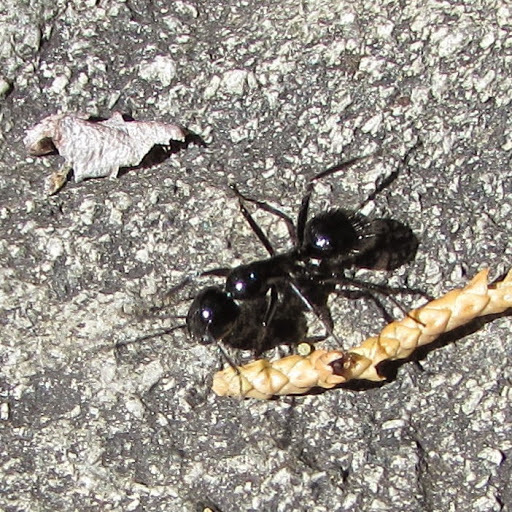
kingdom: Animalia
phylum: Arthropoda
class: Insecta
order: Hymenoptera
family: Formicidae
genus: Camponotus
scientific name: Camponotus
